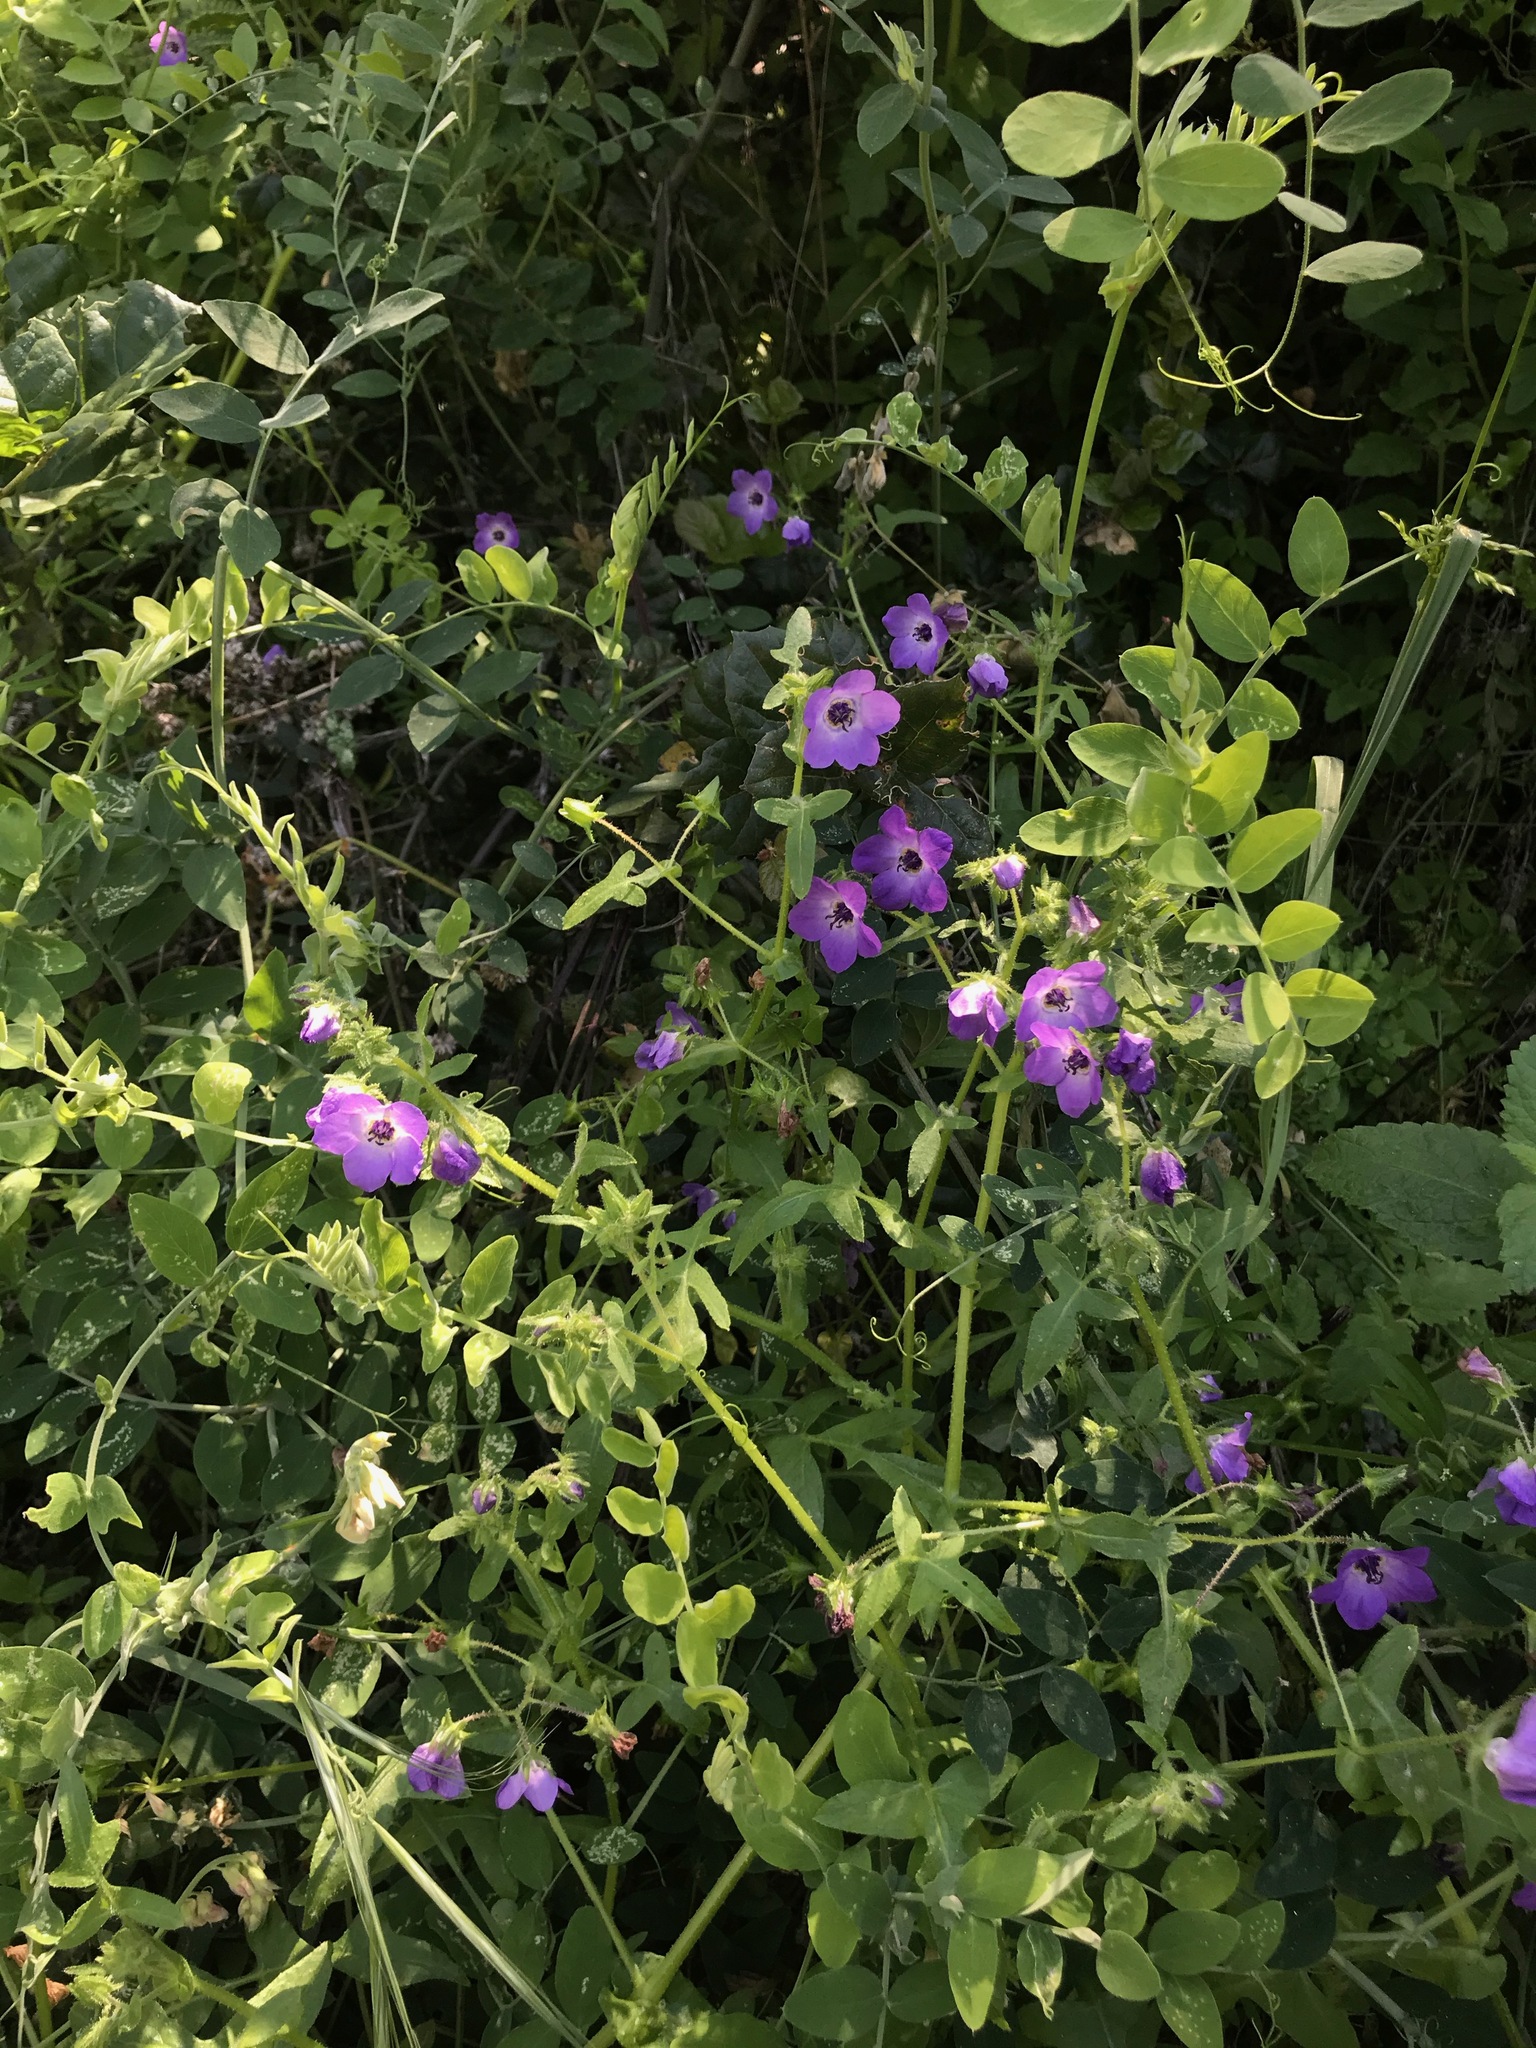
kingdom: Plantae
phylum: Tracheophyta
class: Magnoliopsida
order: Boraginales
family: Hydrophyllaceae
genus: Pholistoma
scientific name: Pholistoma auritum
